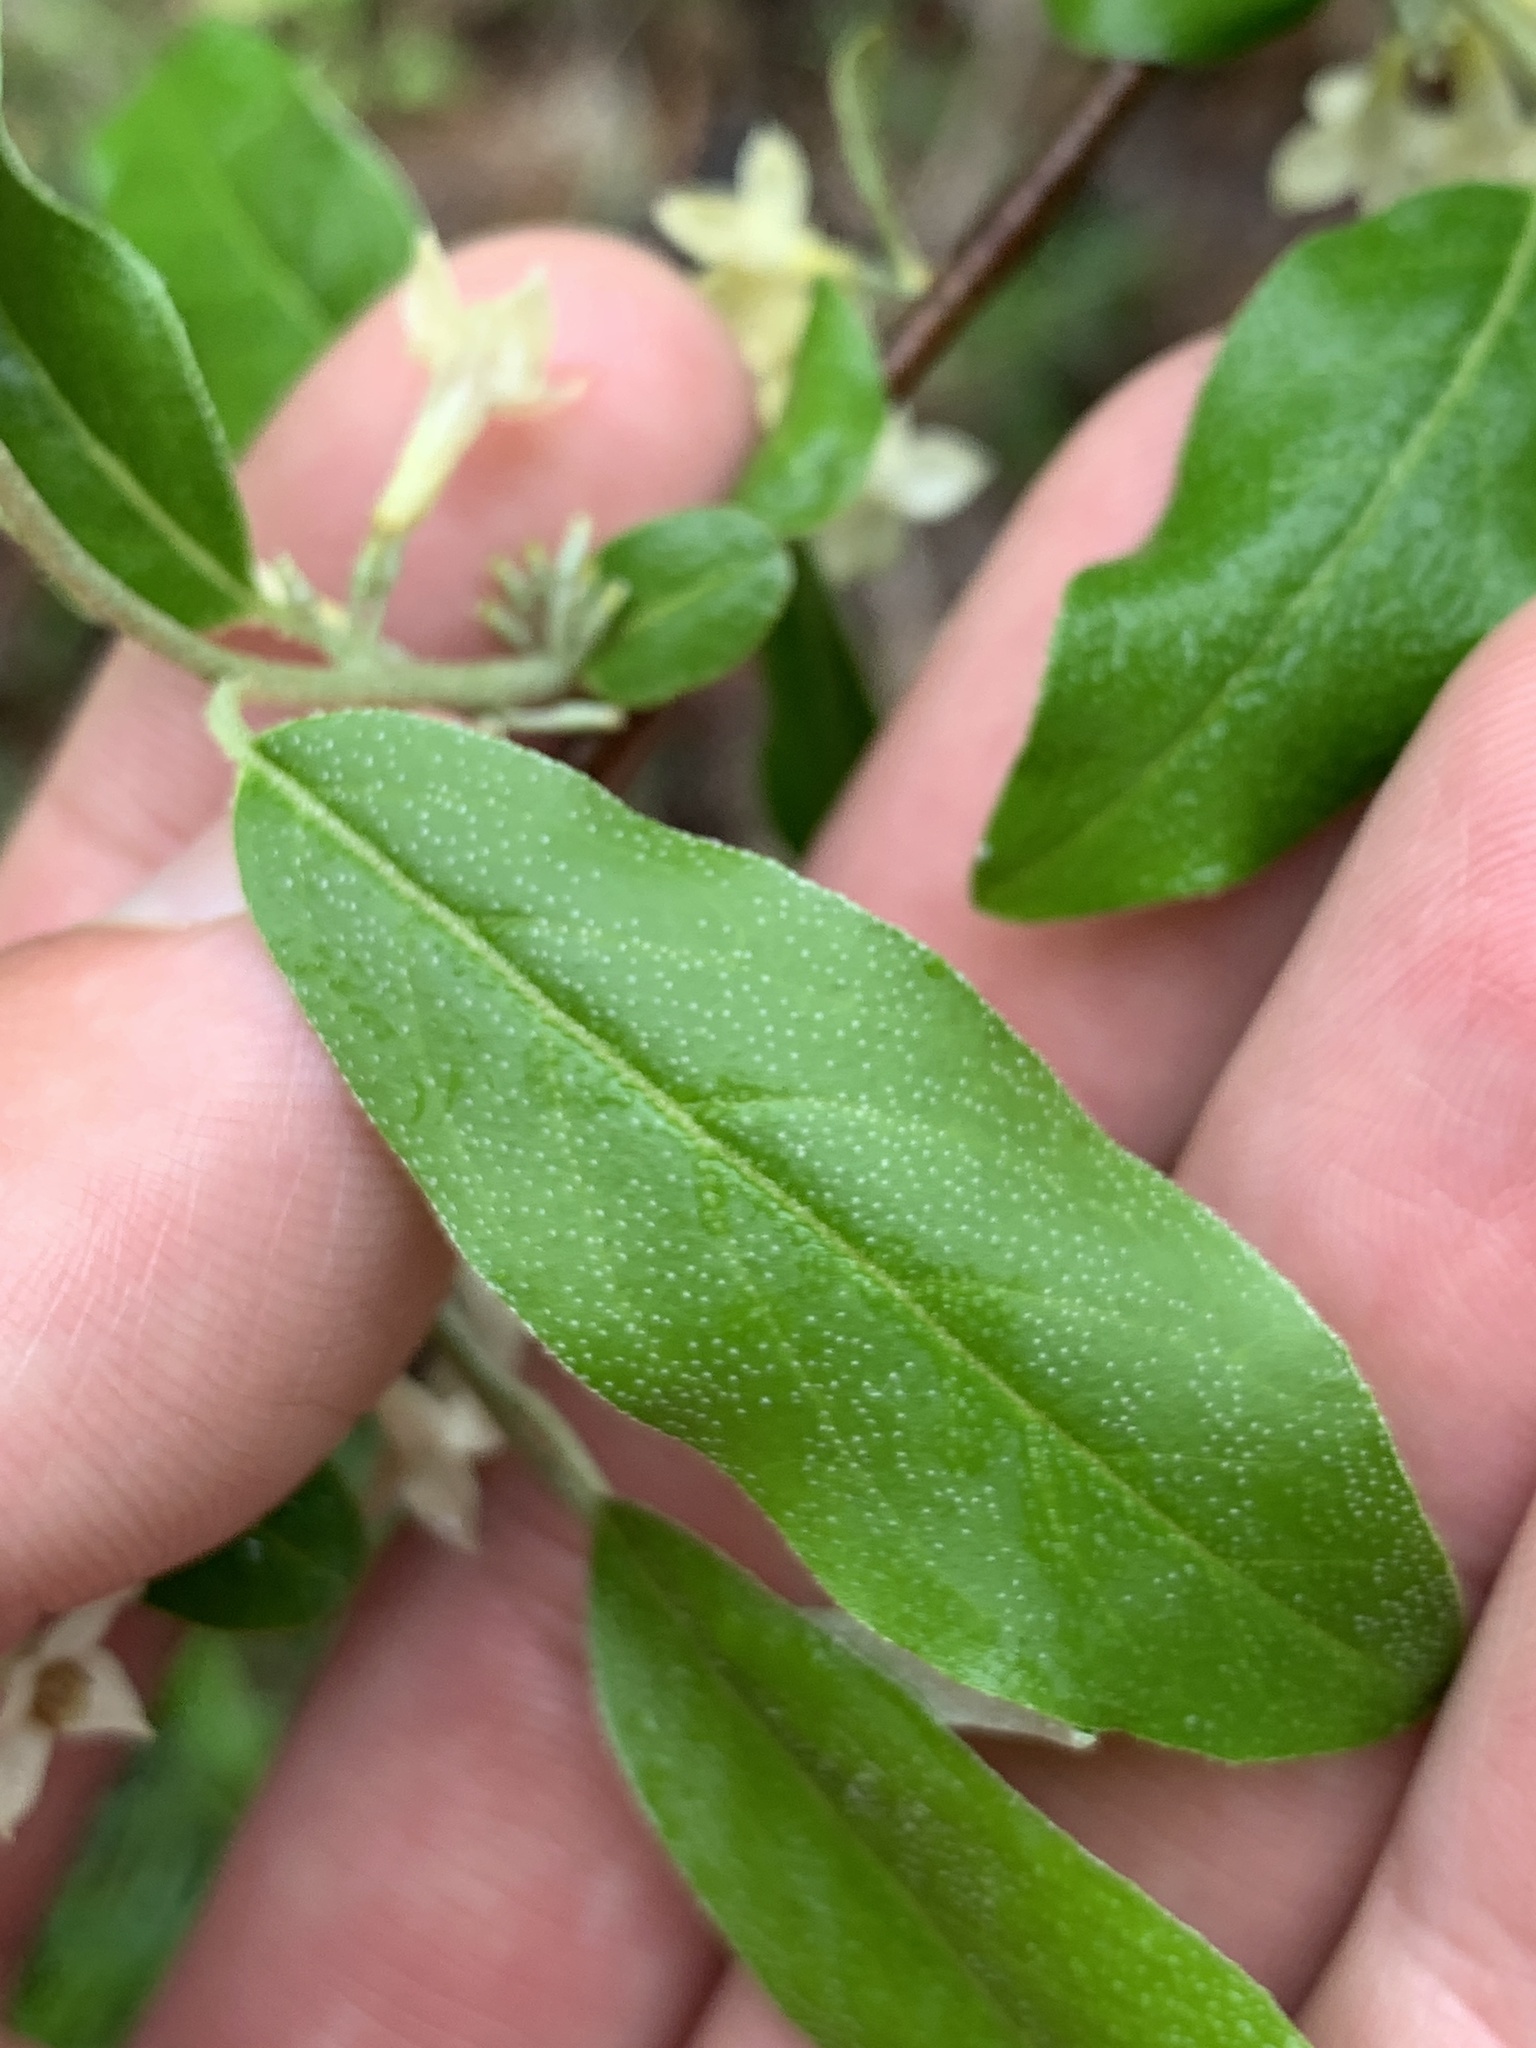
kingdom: Plantae
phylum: Tracheophyta
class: Magnoliopsida
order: Rosales
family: Elaeagnaceae
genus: Elaeagnus
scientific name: Elaeagnus umbellata
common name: Autumn olive
